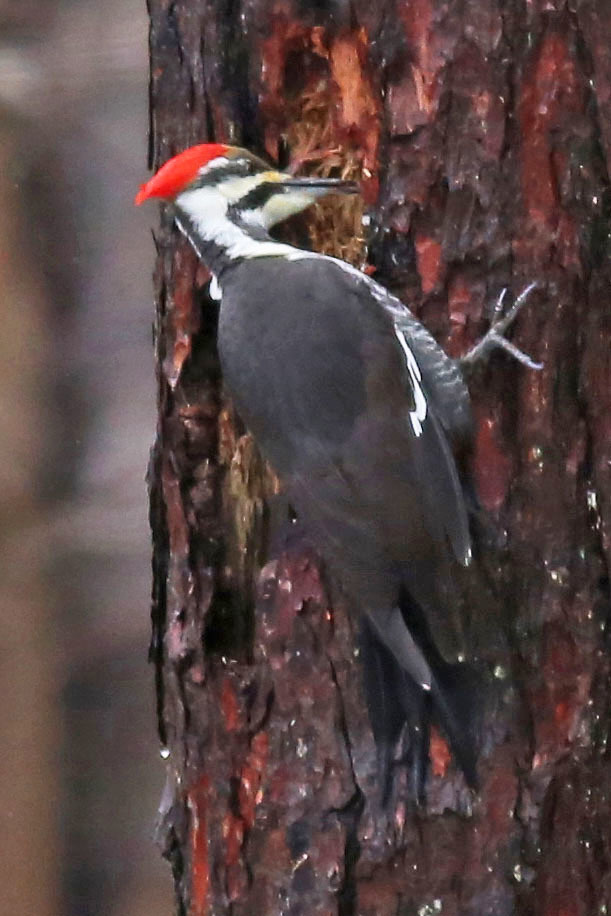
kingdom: Animalia
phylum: Chordata
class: Aves
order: Piciformes
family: Picidae
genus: Dryocopus
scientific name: Dryocopus pileatus
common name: Pileated woodpecker
